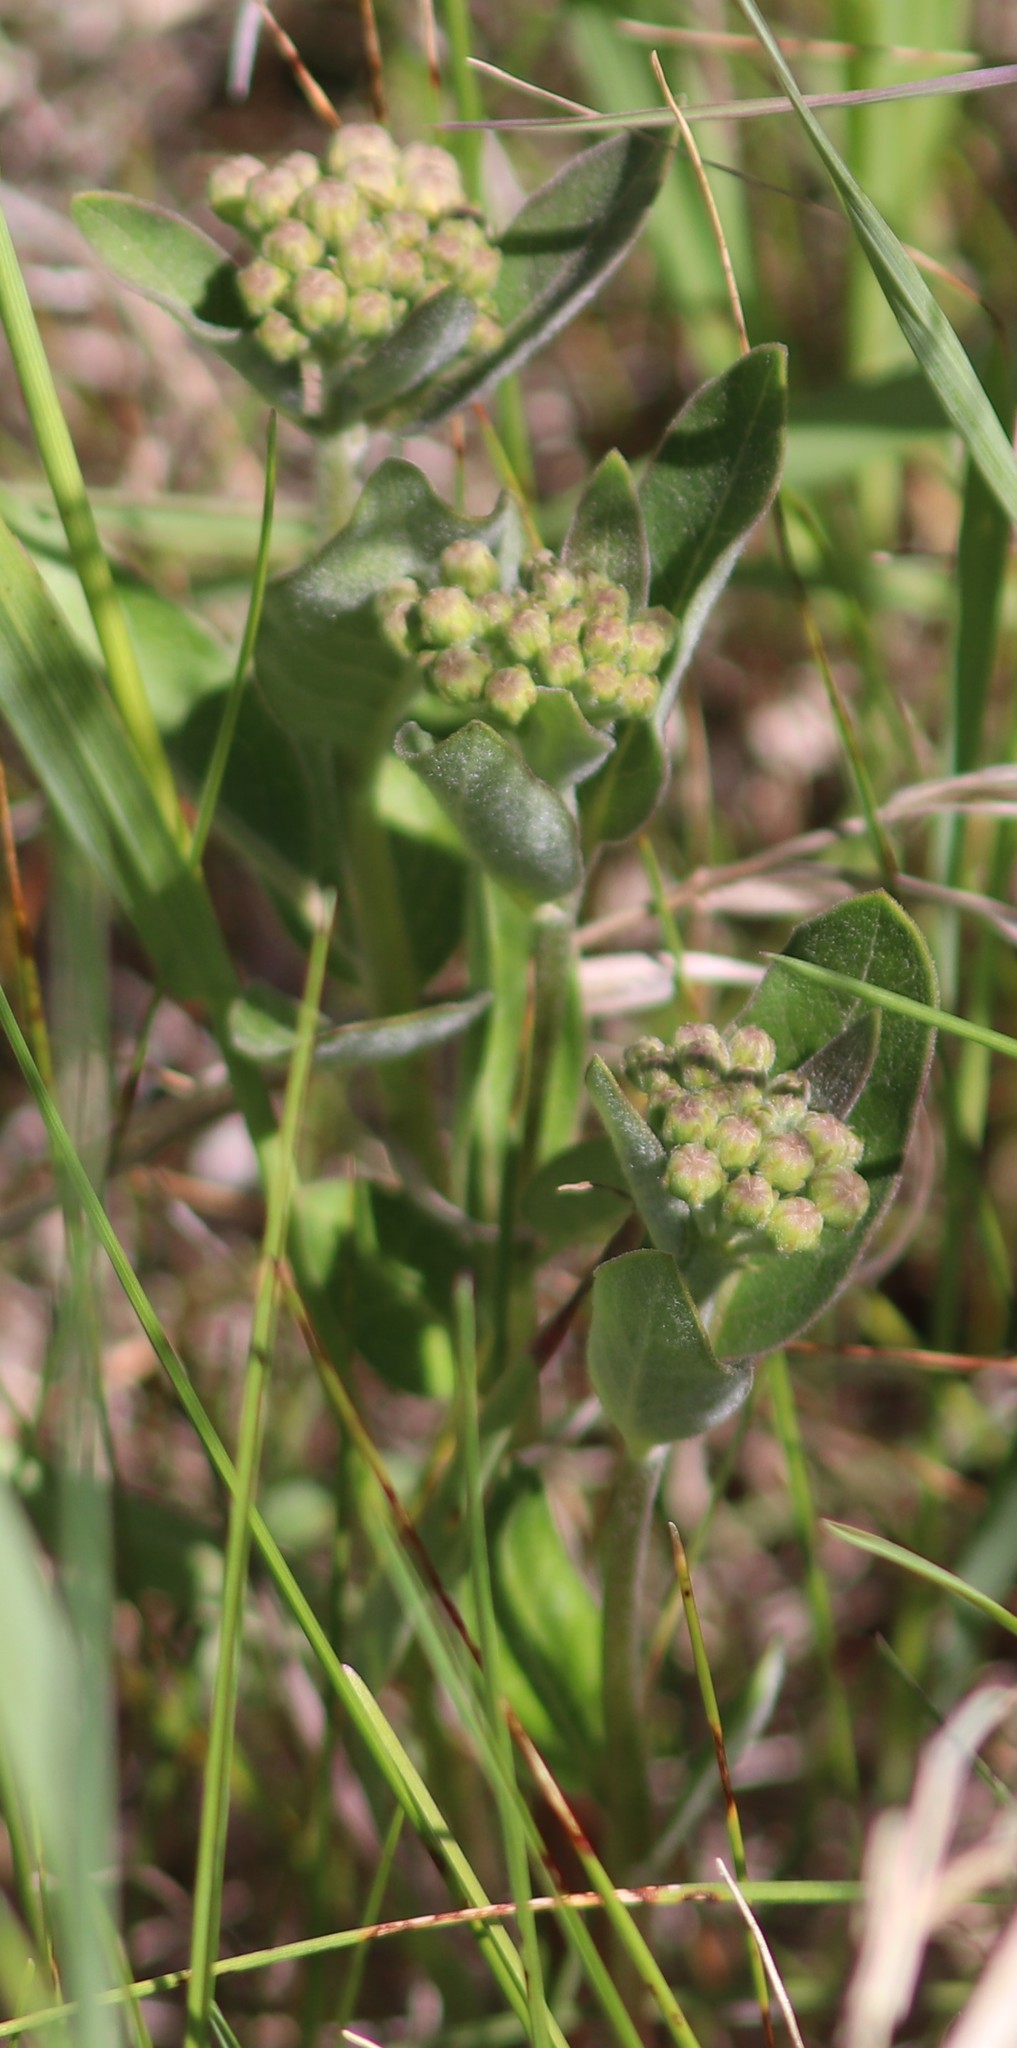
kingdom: Plantae
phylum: Tracheophyta
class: Magnoliopsida
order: Gentianales
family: Apocynaceae
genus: Asclepias
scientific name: Asclepias ovalifolia
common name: Dwarf milkweed
